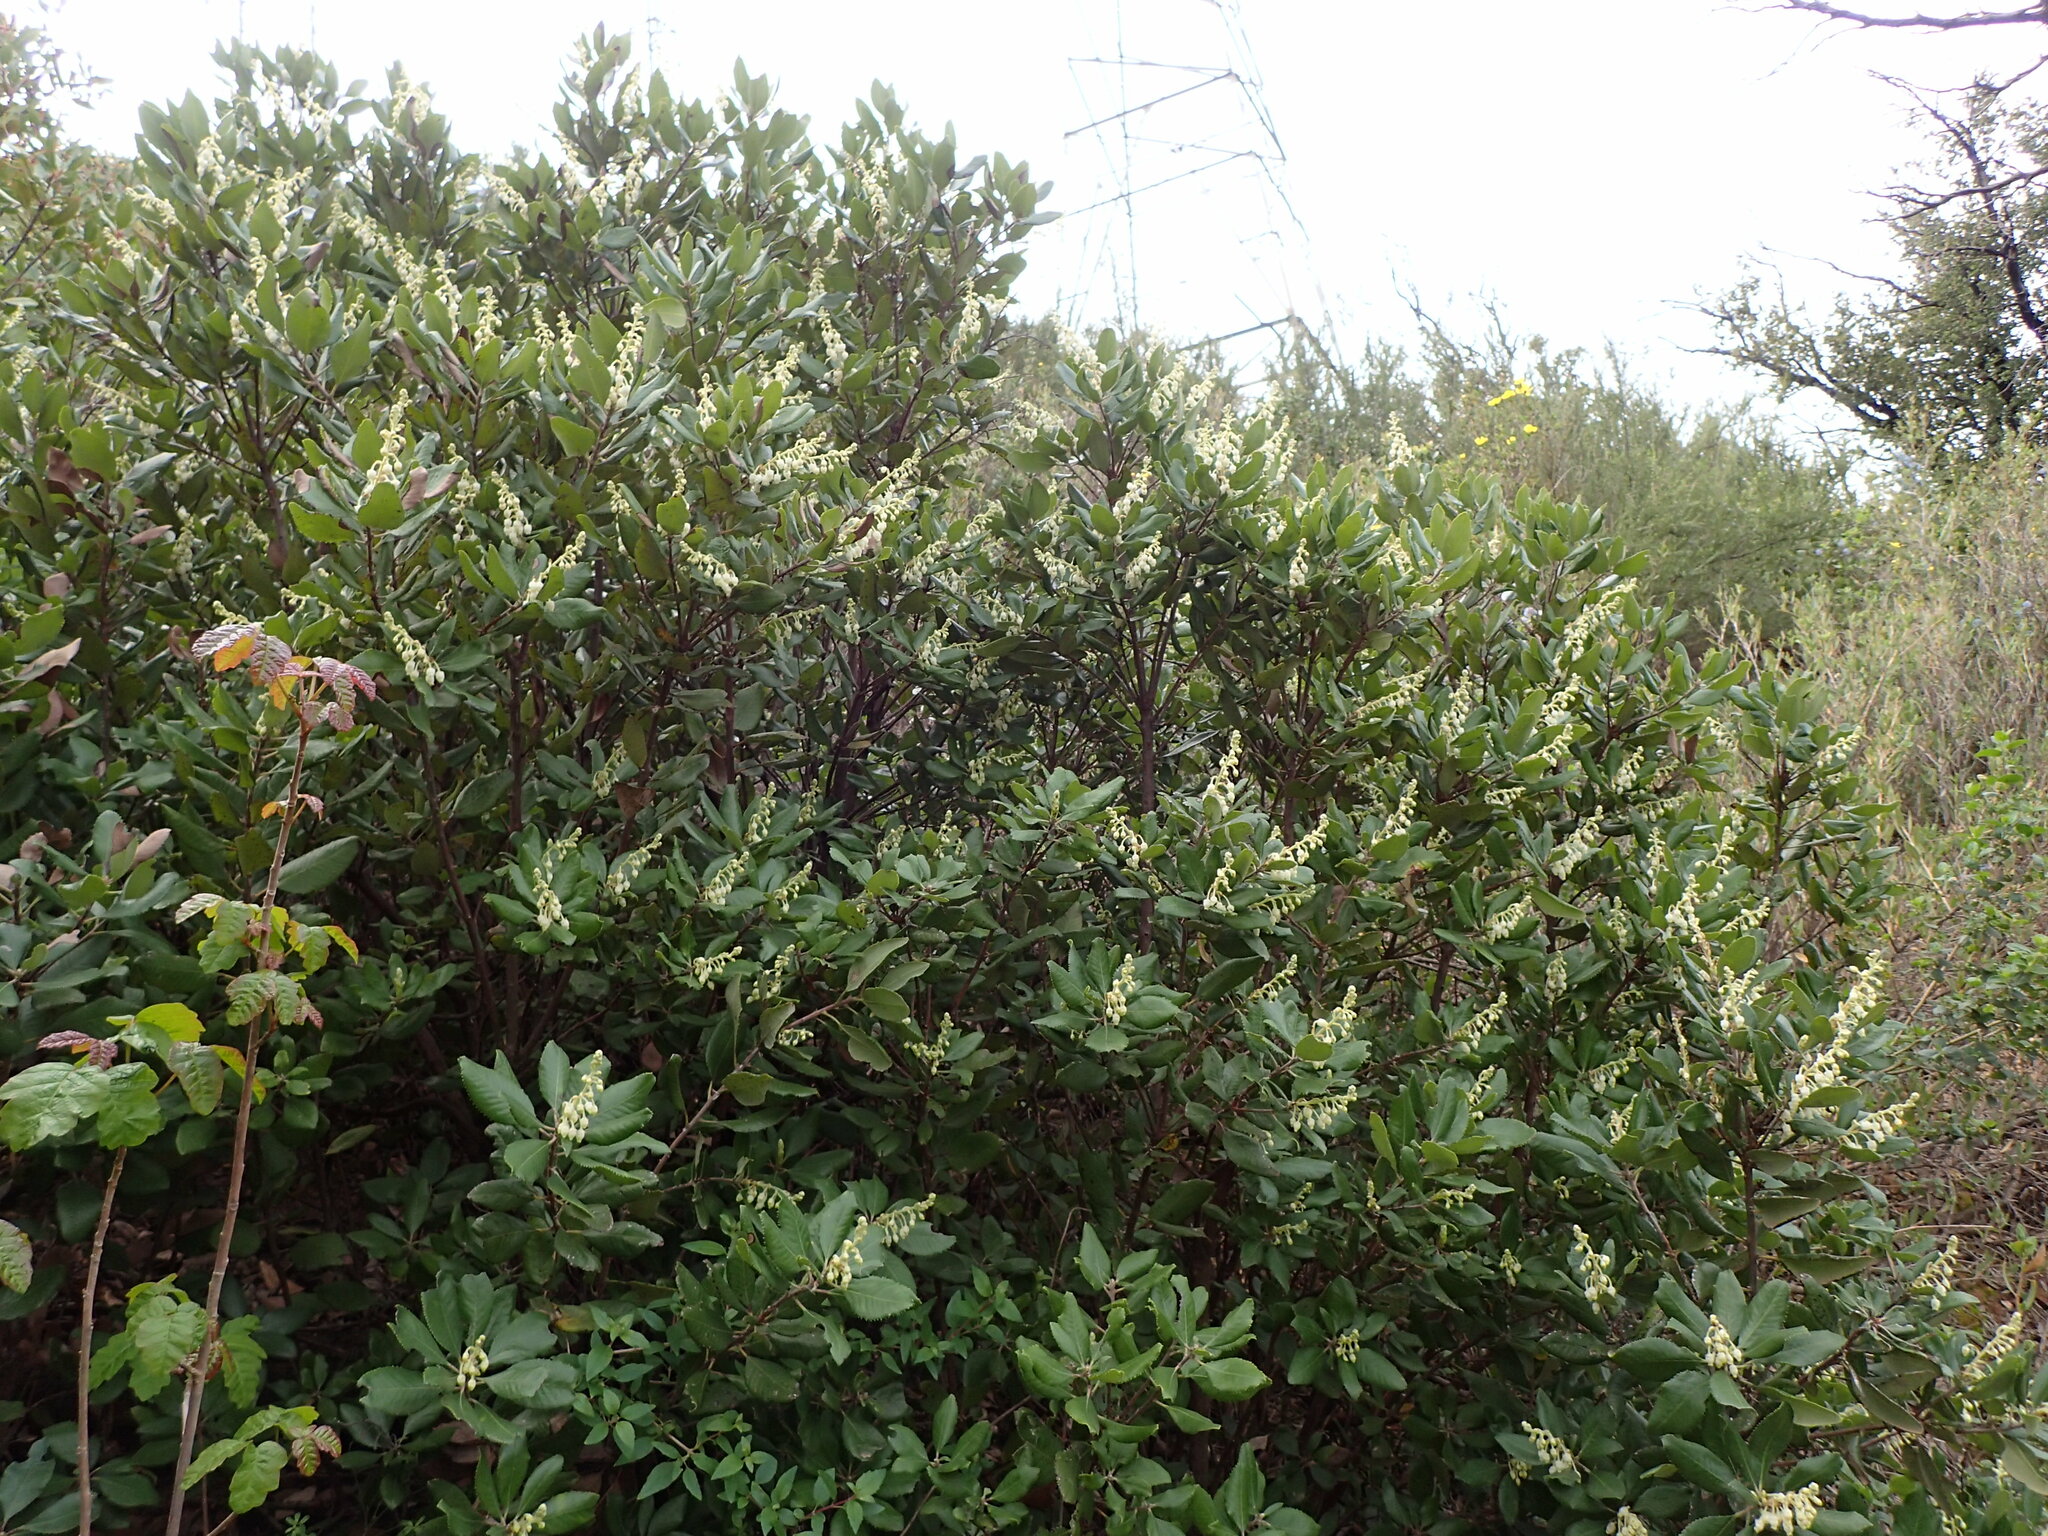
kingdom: Plantae
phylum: Tracheophyta
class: Magnoliopsida
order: Ericales
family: Ericaceae
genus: Comarostaphylis
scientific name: Comarostaphylis diversifolia
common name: Summer-holly
